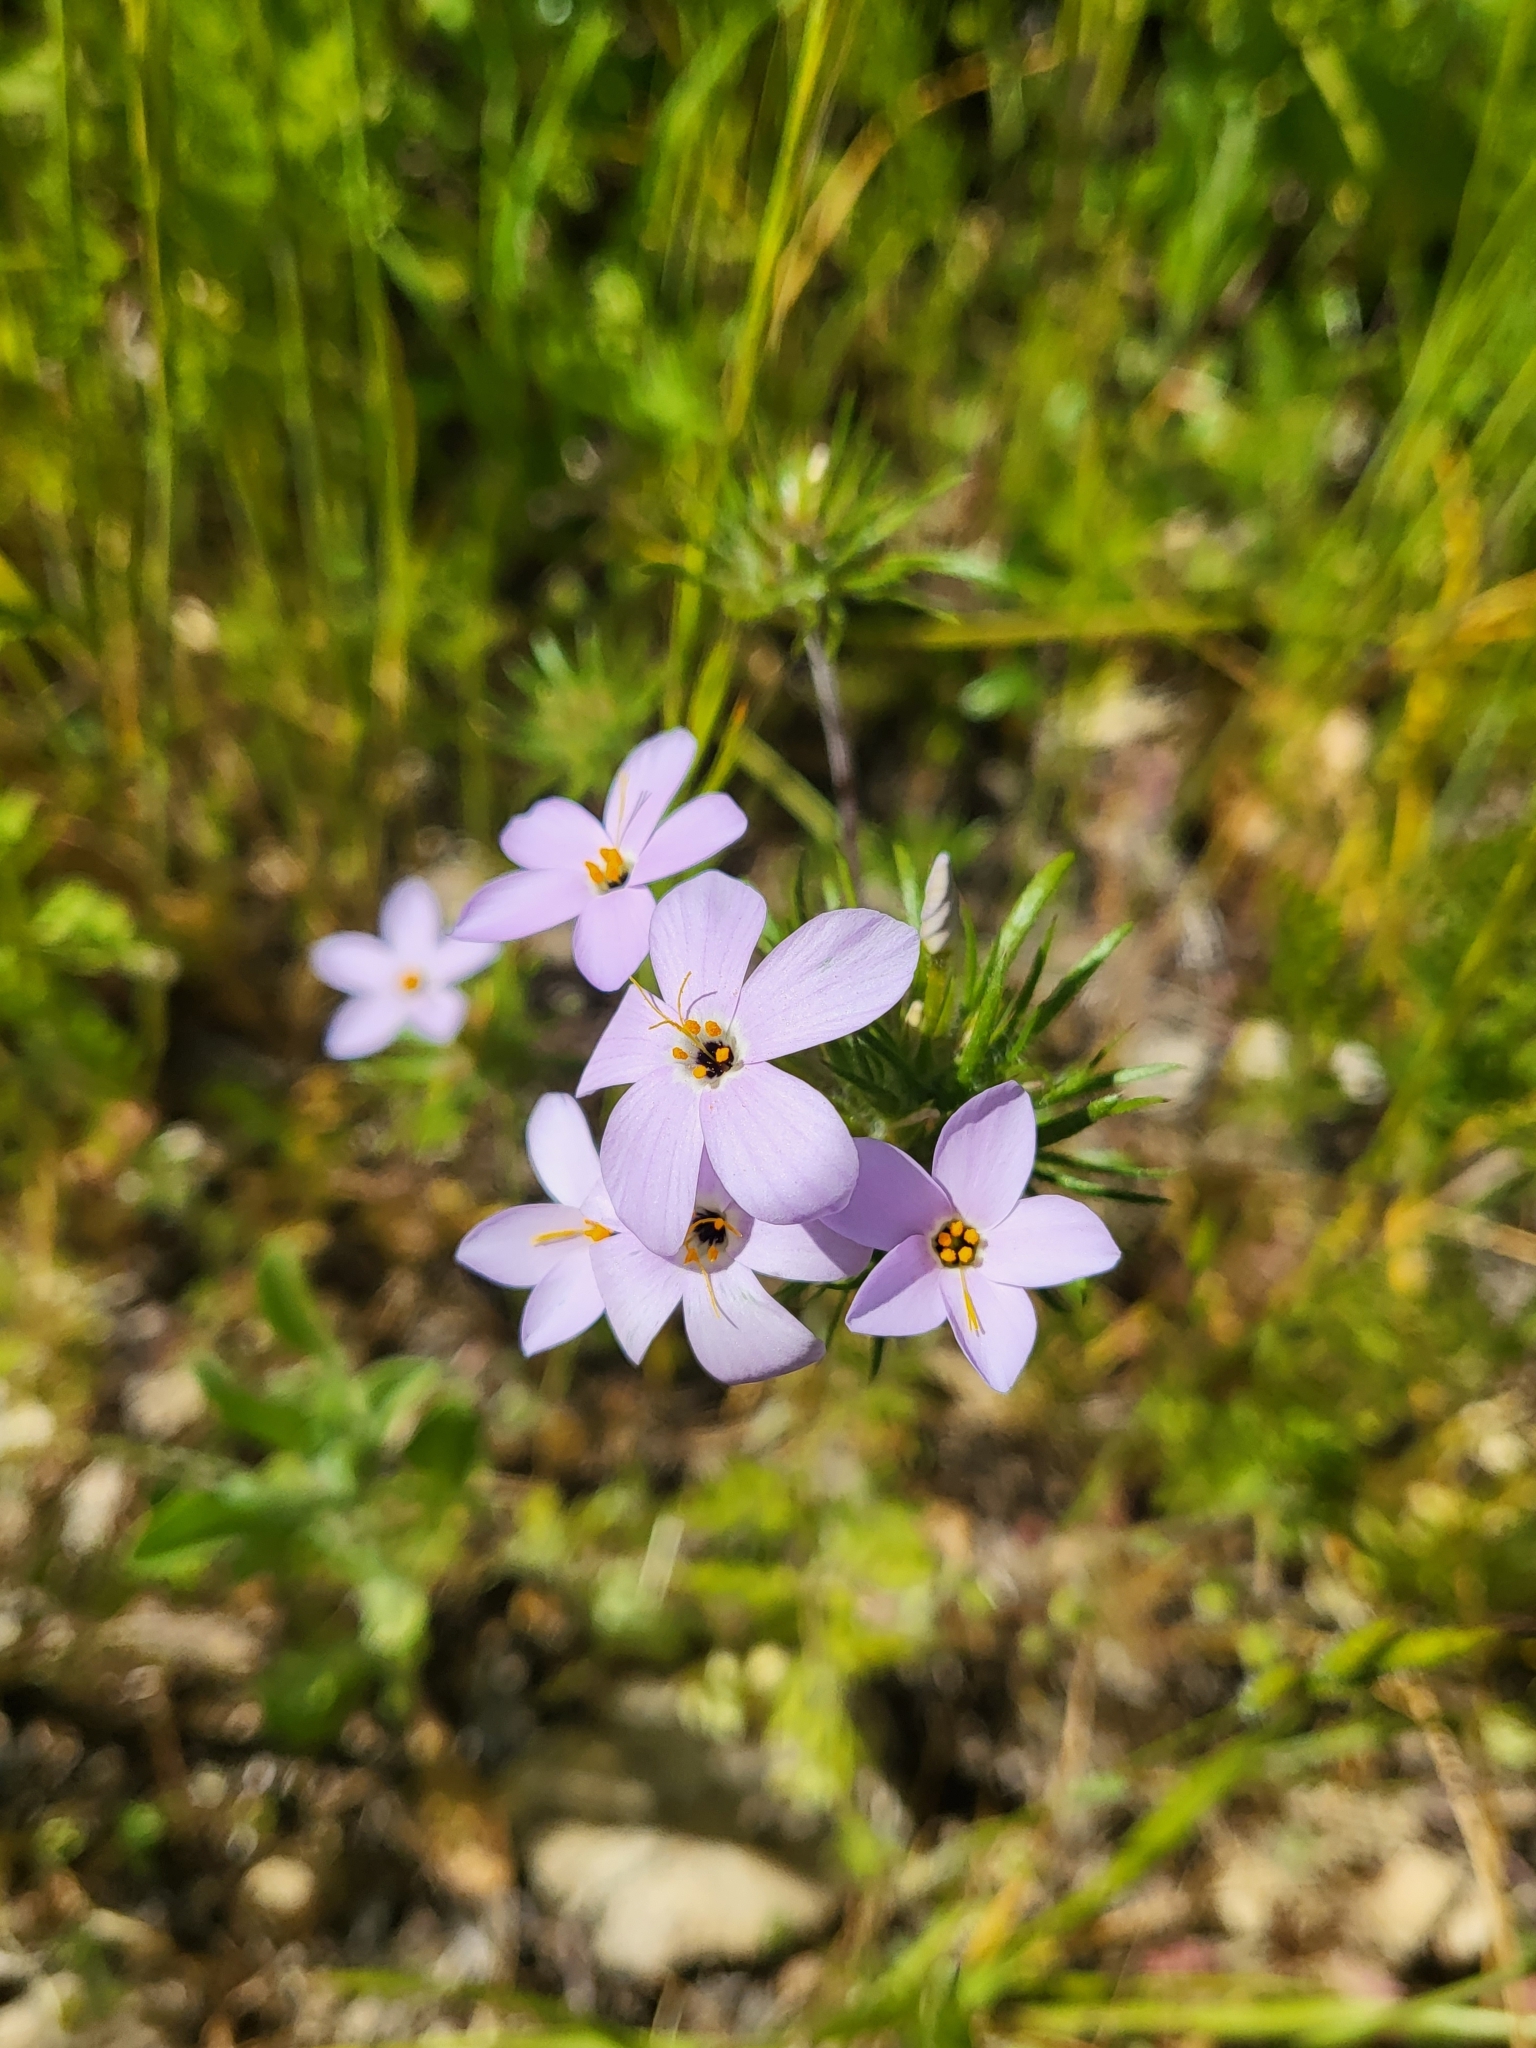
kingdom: Plantae
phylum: Tracheophyta
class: Magnoliopsida
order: Ericales
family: Polemoniaceae
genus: Leptosiphon
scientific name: Leptosiphon androsaceus
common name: False babystars
